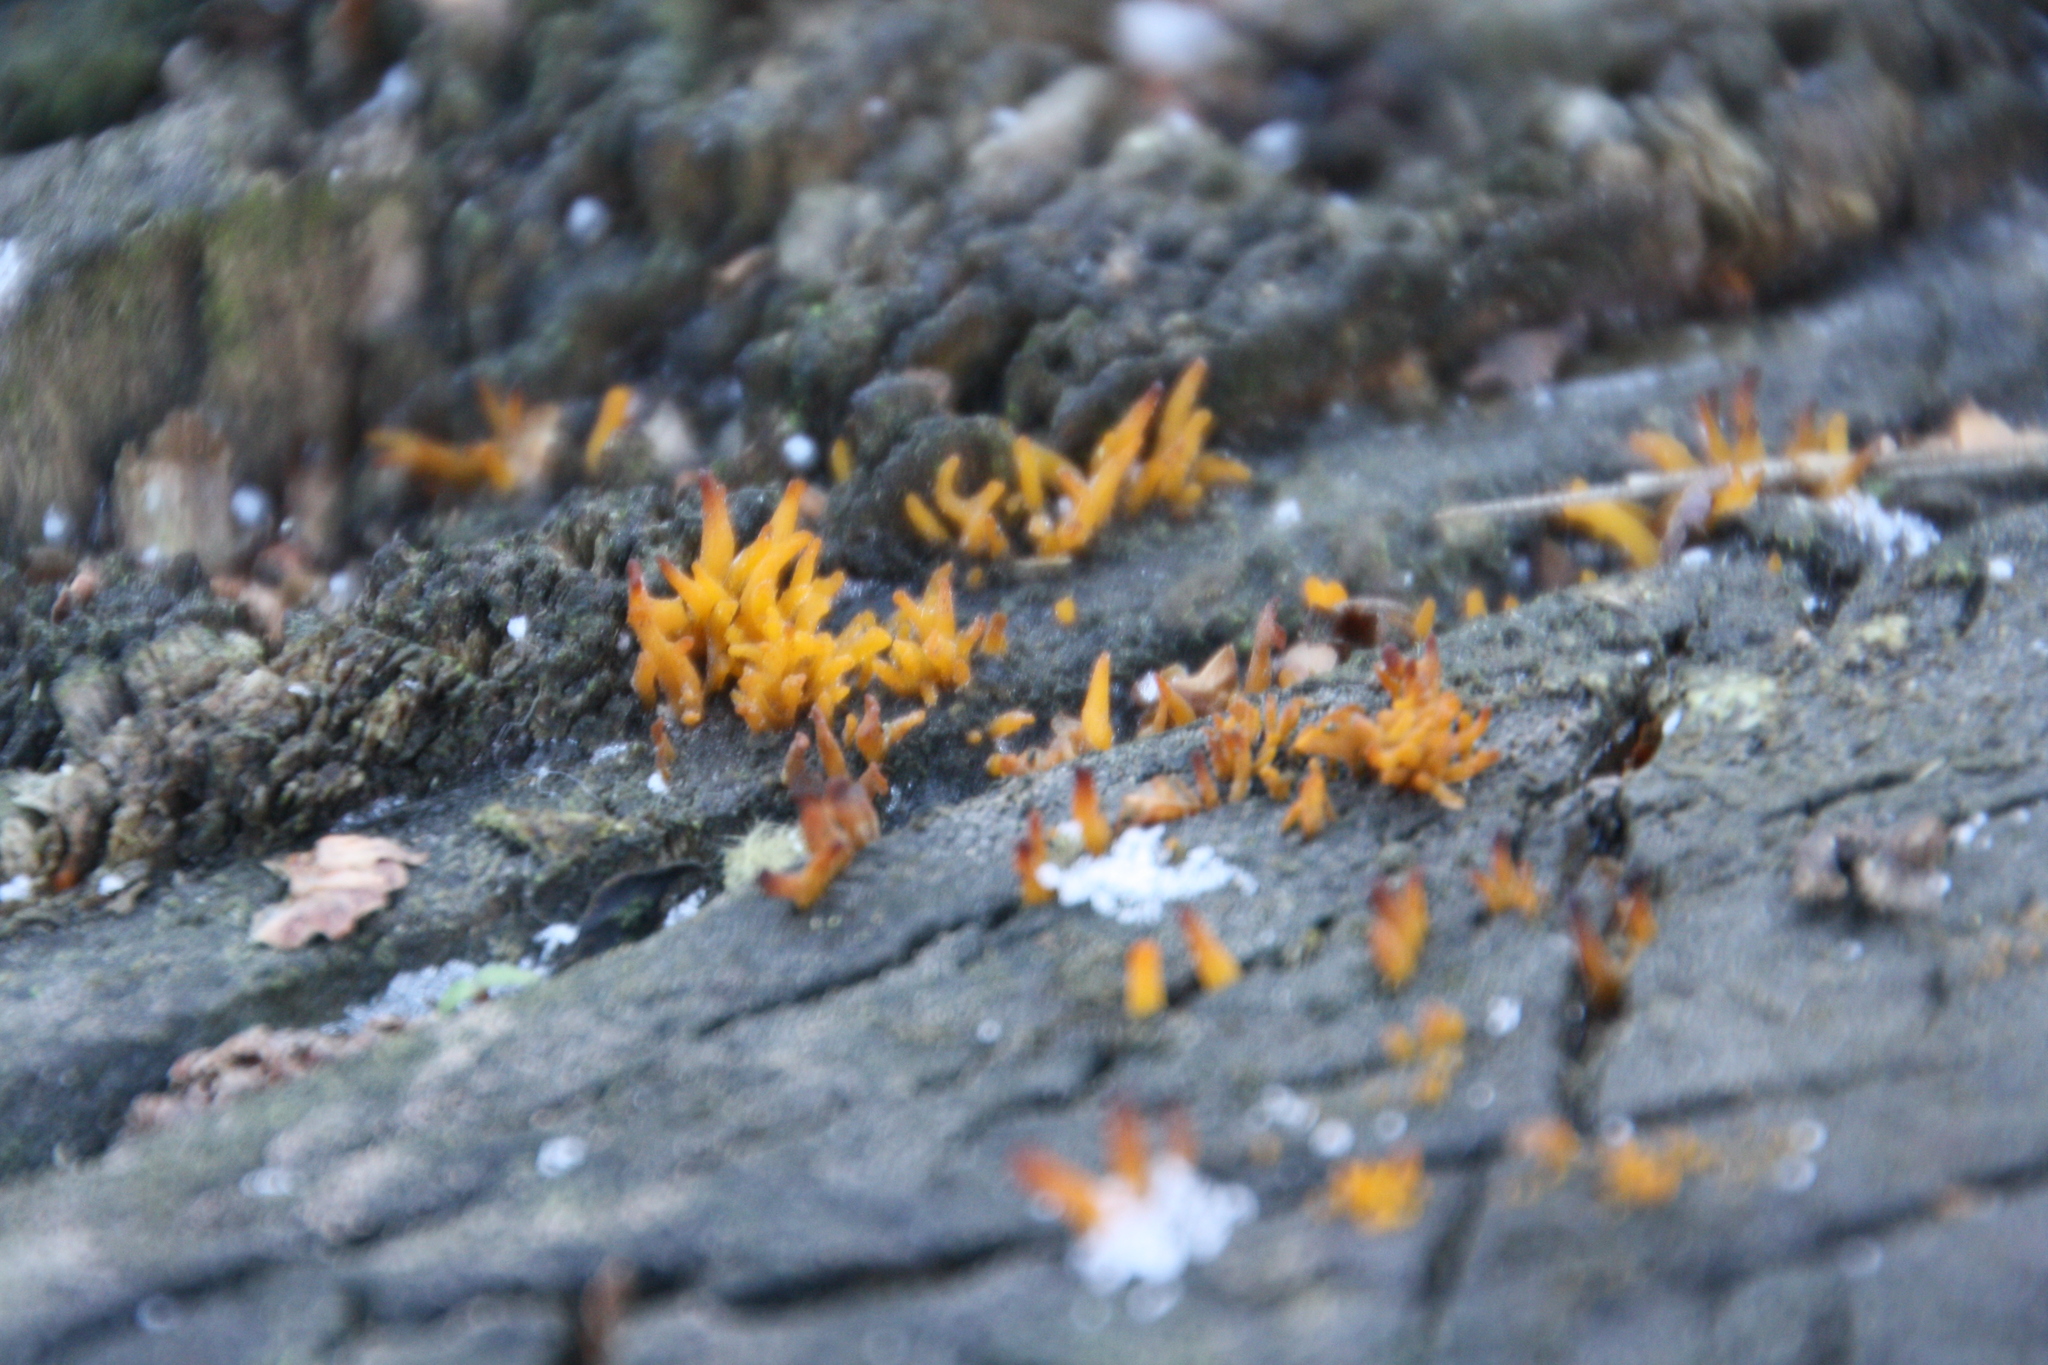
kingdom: Fungi
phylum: Basidiomycota
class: Dacrymycetes
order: Dacrymycetales
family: Dacrymycetaceae
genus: Calocera
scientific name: Calocera cornea
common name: Small stagshorn
